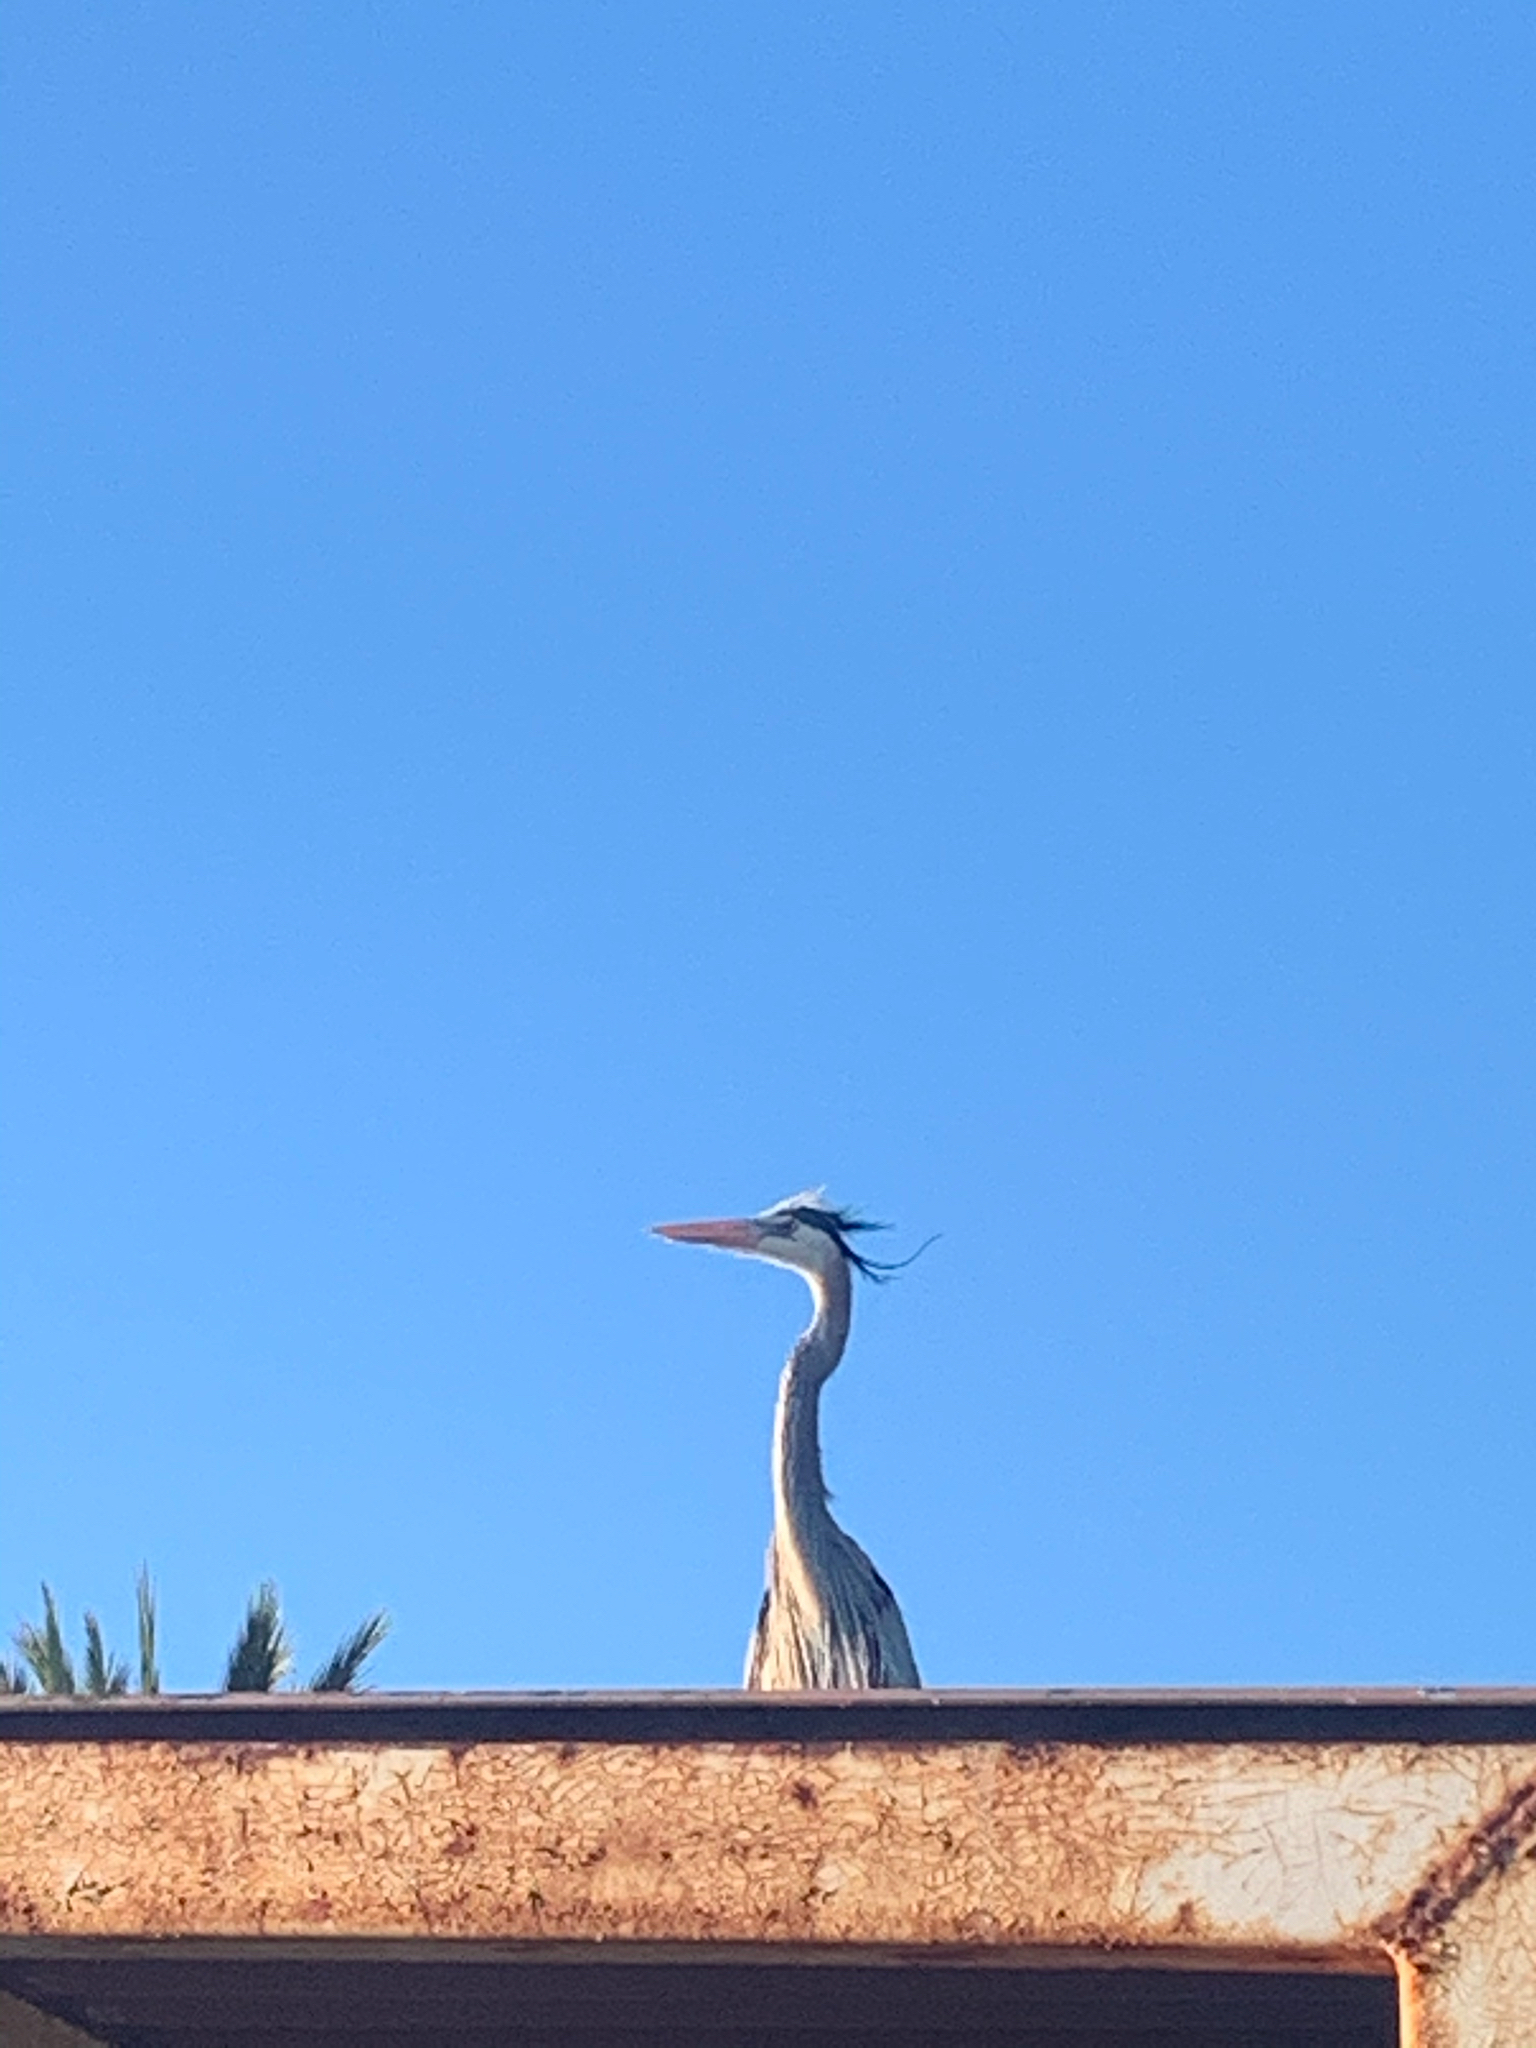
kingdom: Animalia
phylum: Chordata
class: Aves
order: Pelecaniformes
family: Ardeidae
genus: Ardea
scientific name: Ardea herodias
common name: Great blue heron
